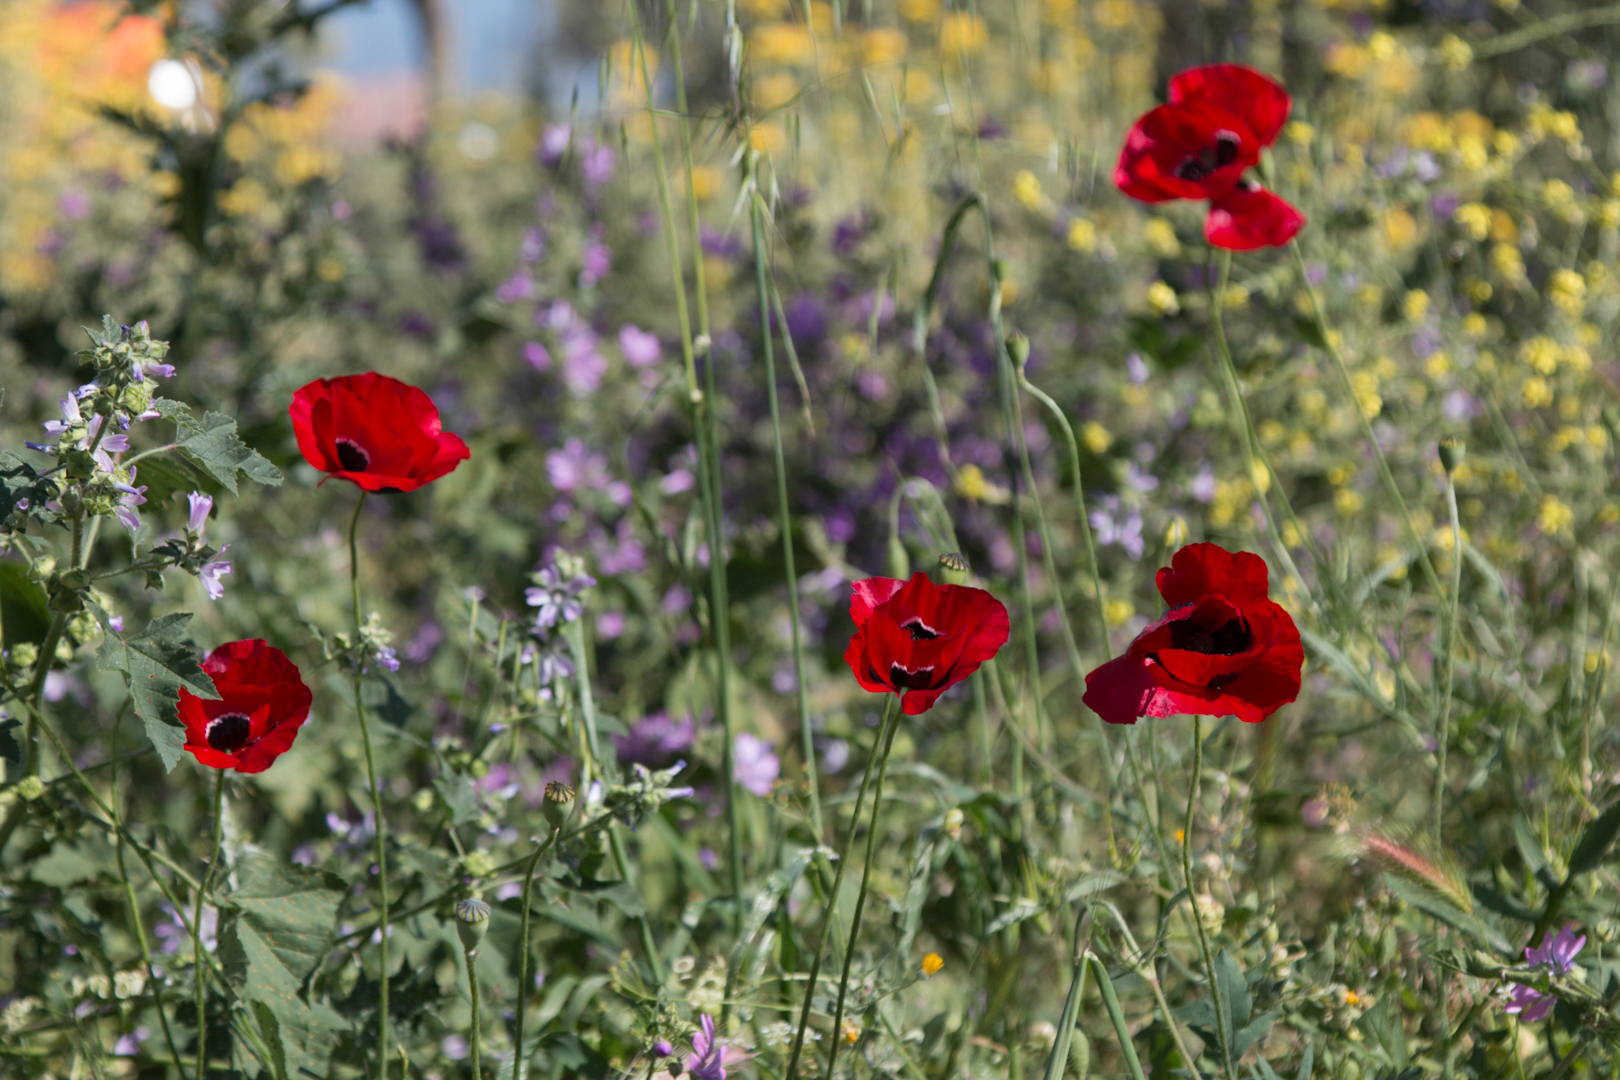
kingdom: Plantae
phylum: Tracheophyta
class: Magnoliopsida
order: Ranunculales
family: Papaveraceae
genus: Papaver
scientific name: Papaver rhoeas
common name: Corn poppy
